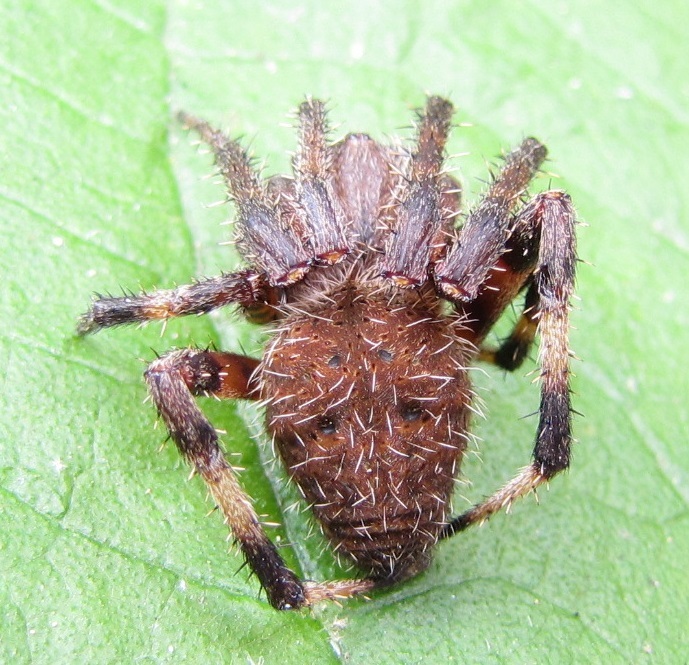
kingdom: Animalia
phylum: Arthropoda
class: Arachnida
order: Araneae
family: Araneidae
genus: Neoscona
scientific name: Neoscona crucifera
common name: Spotted orbweaver
